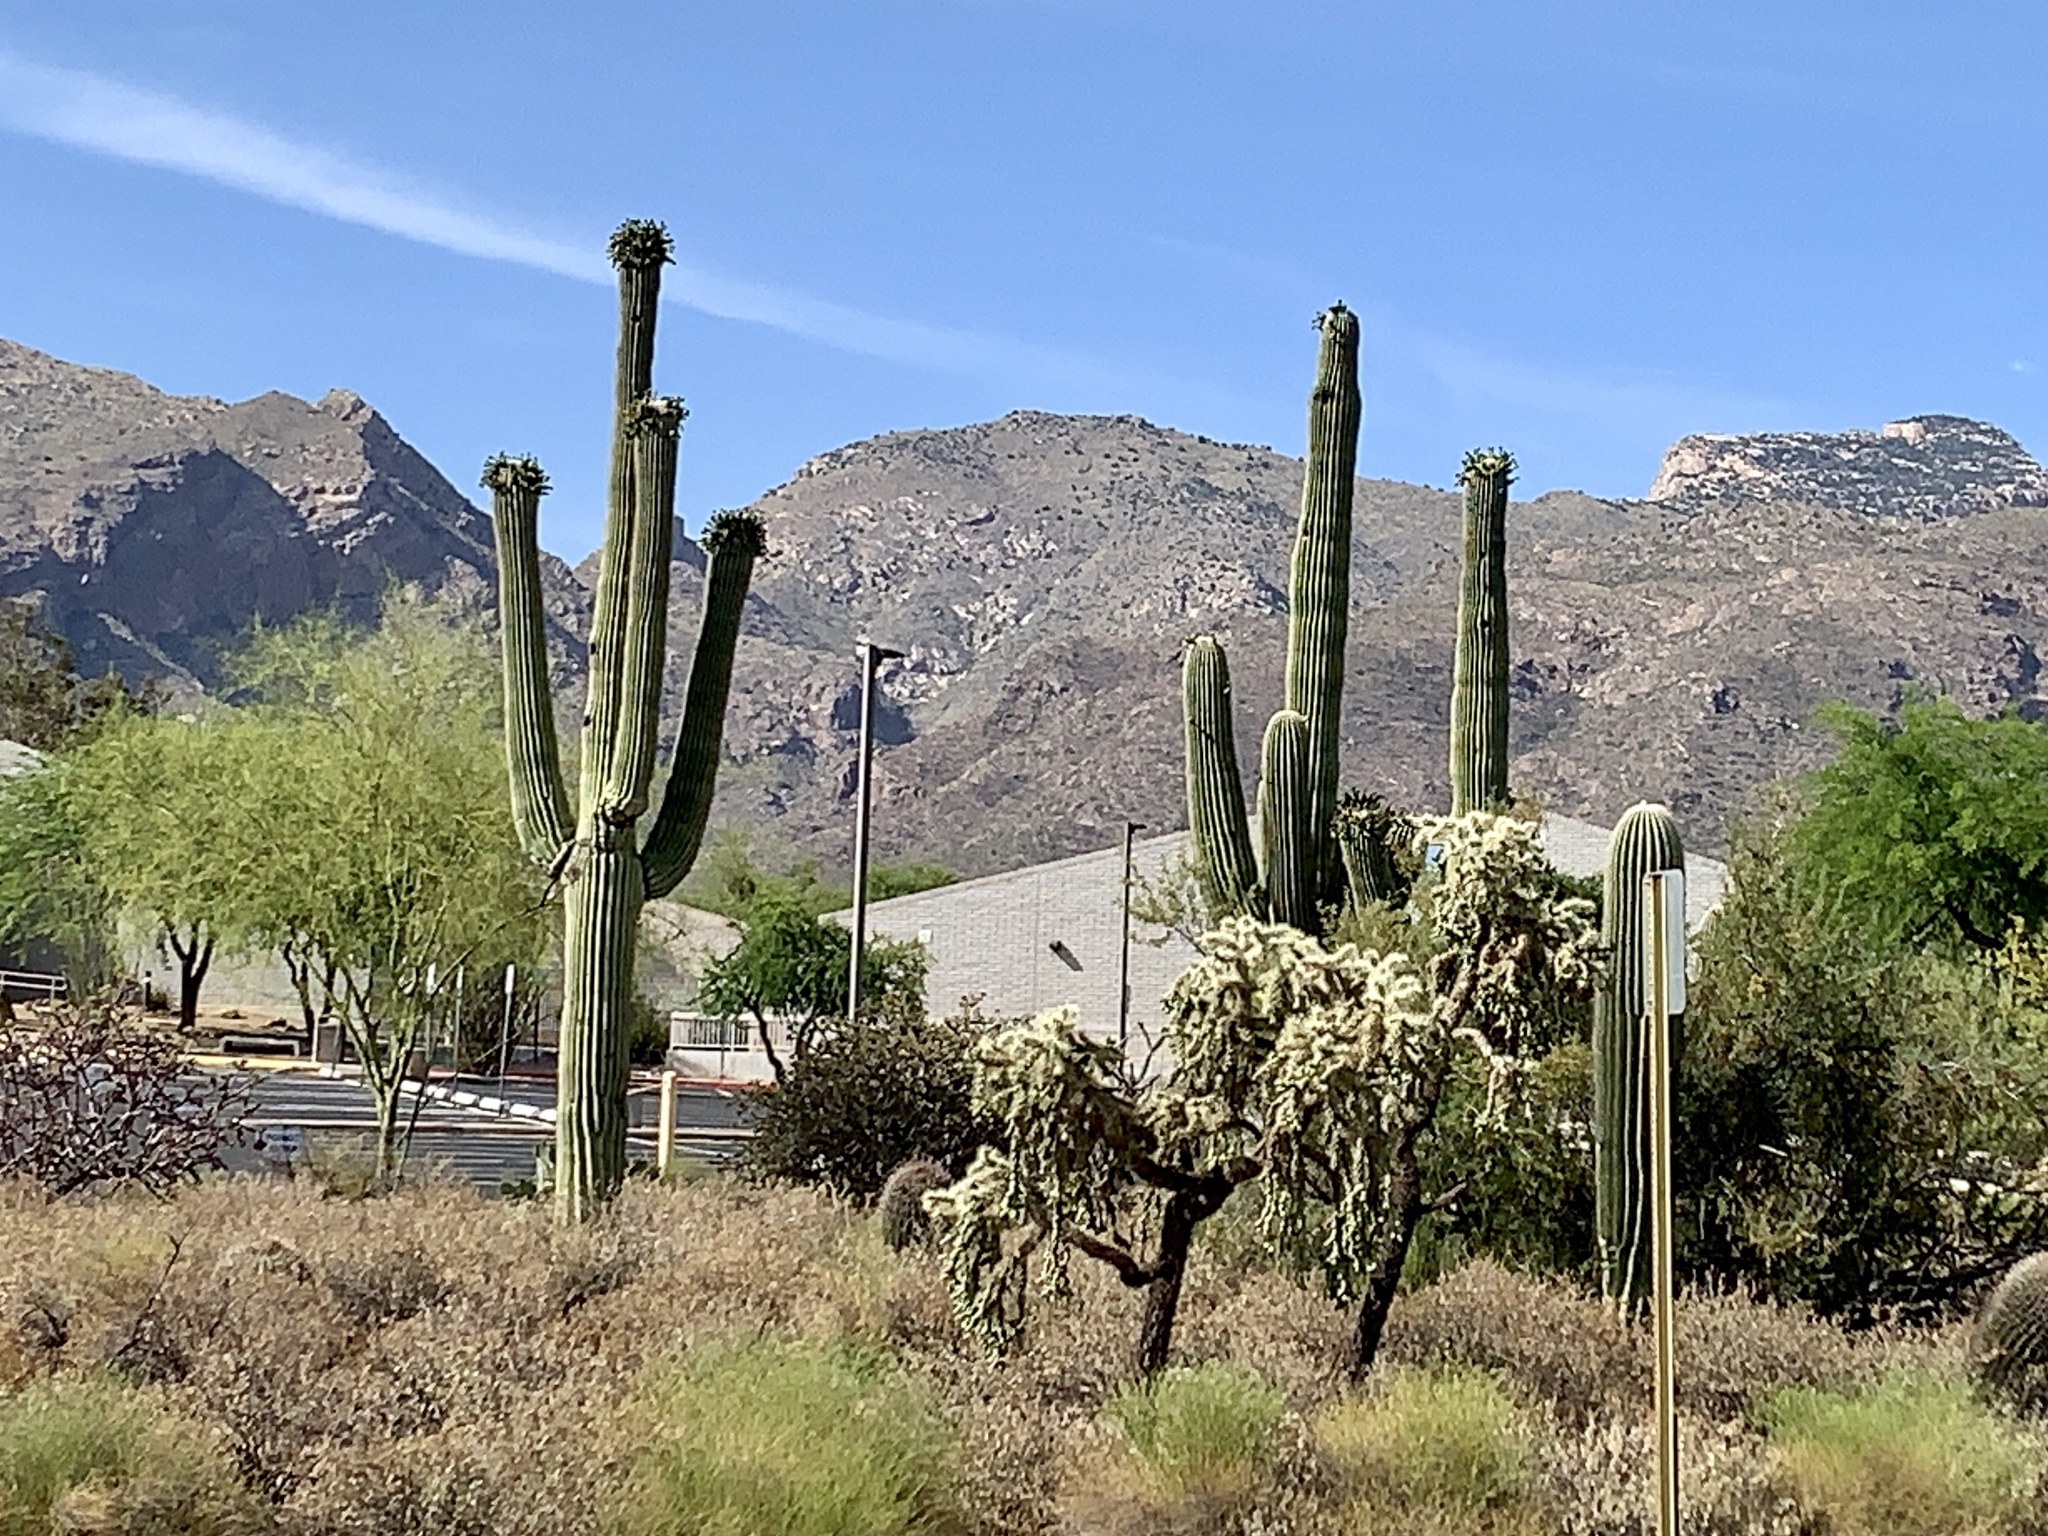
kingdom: Plantae
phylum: Tracheophyta
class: Magnoliopsida
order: Caryophyllales
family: Cactaceae
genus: Carnegiea
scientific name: Carnegiea gigantea
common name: Saguaro
